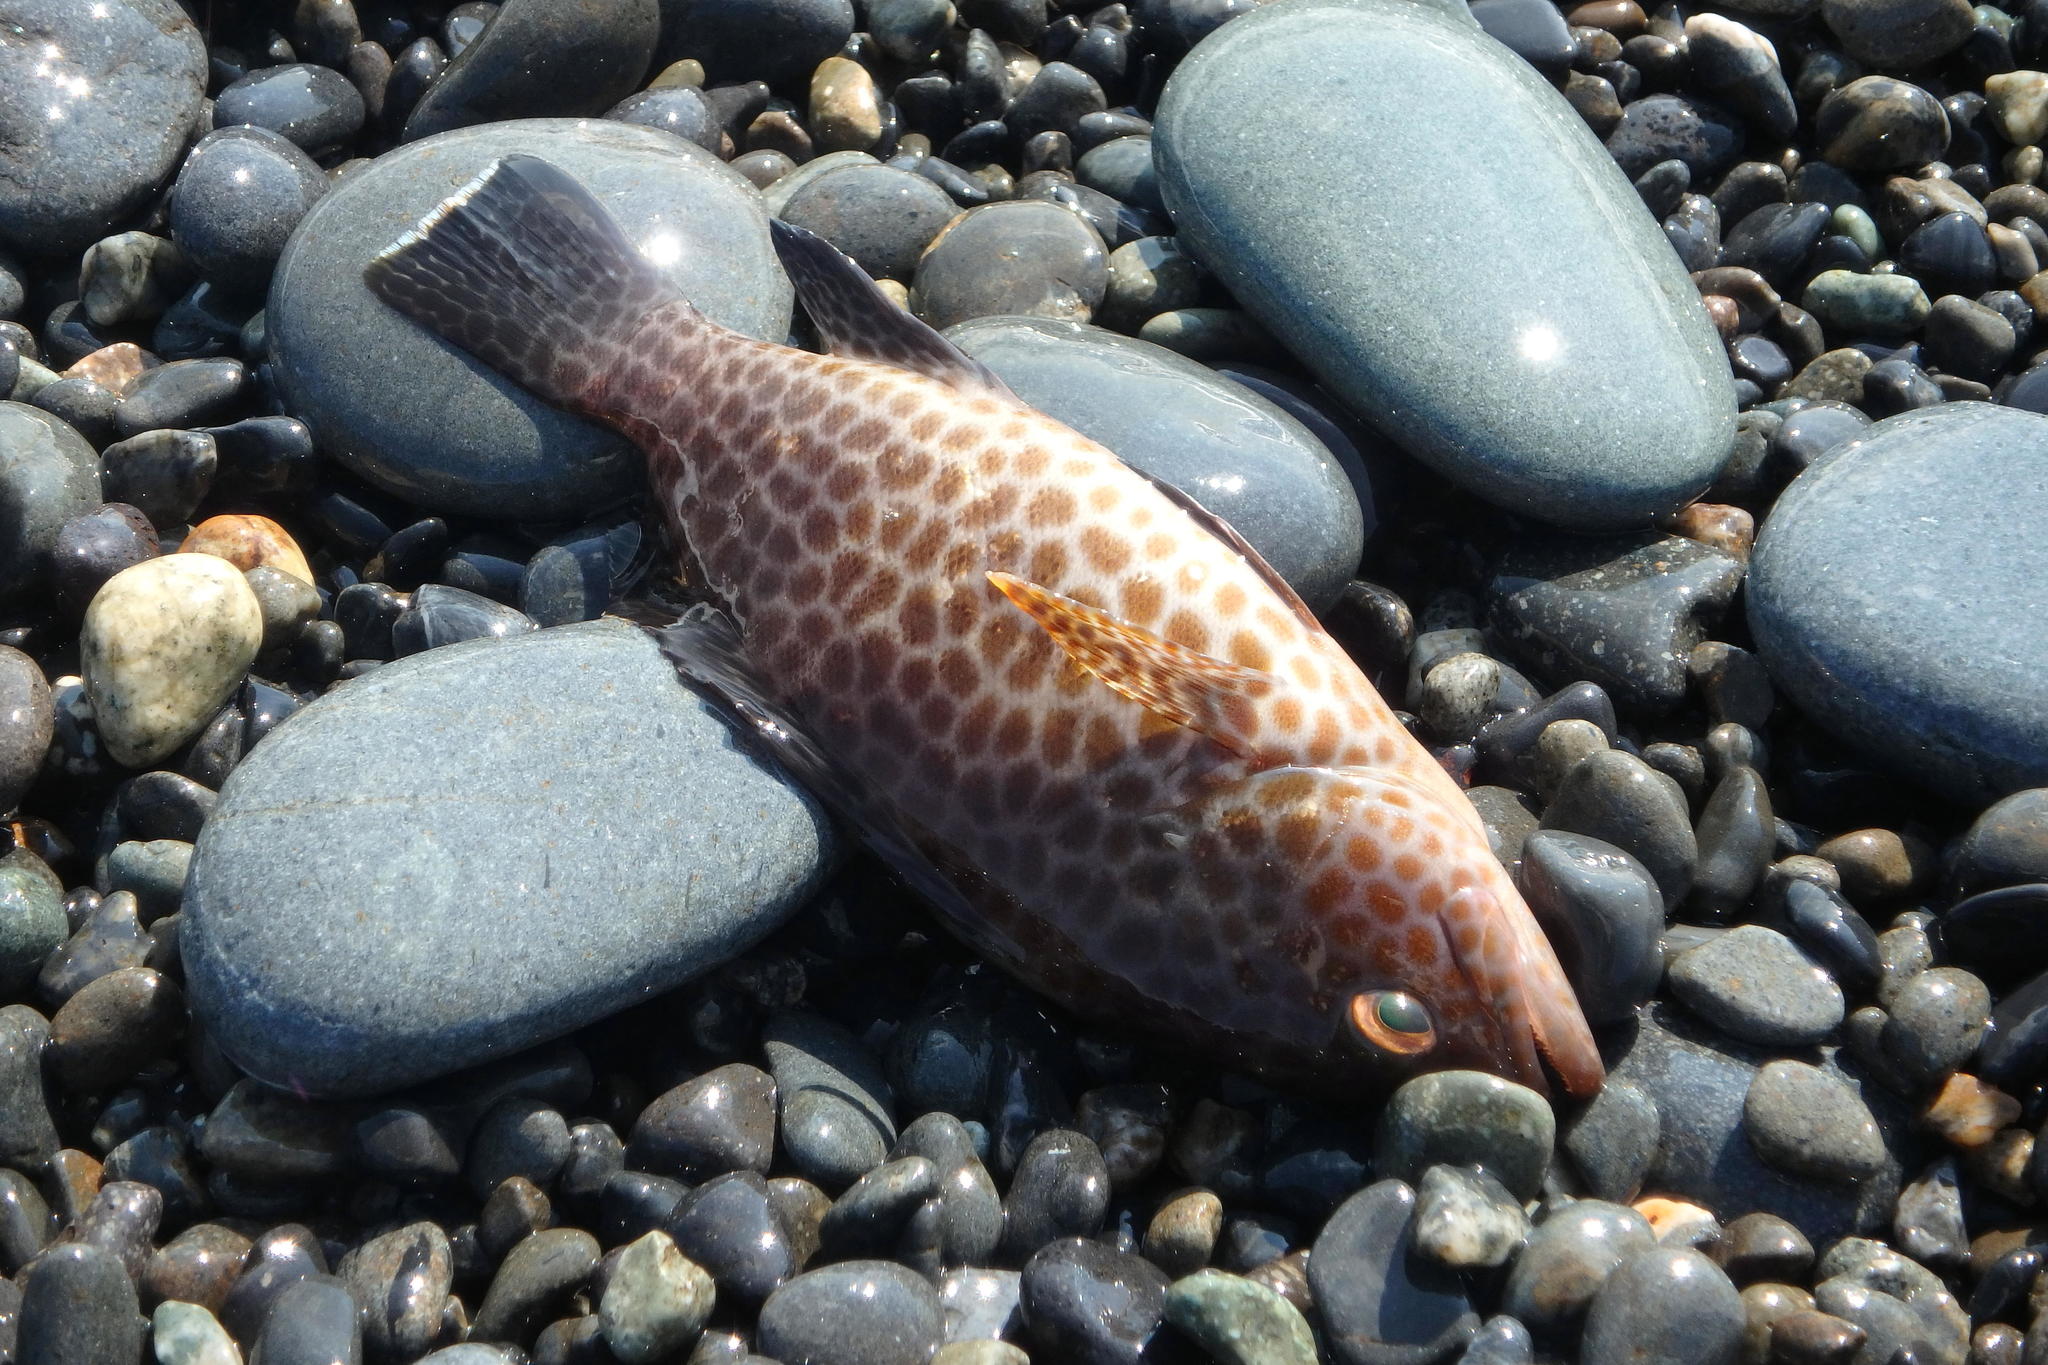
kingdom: Animalia
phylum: Chordata
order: Perciformes
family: Serranidae
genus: Epinephelus
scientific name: Epinephelus areolatus
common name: Areolate grouper
